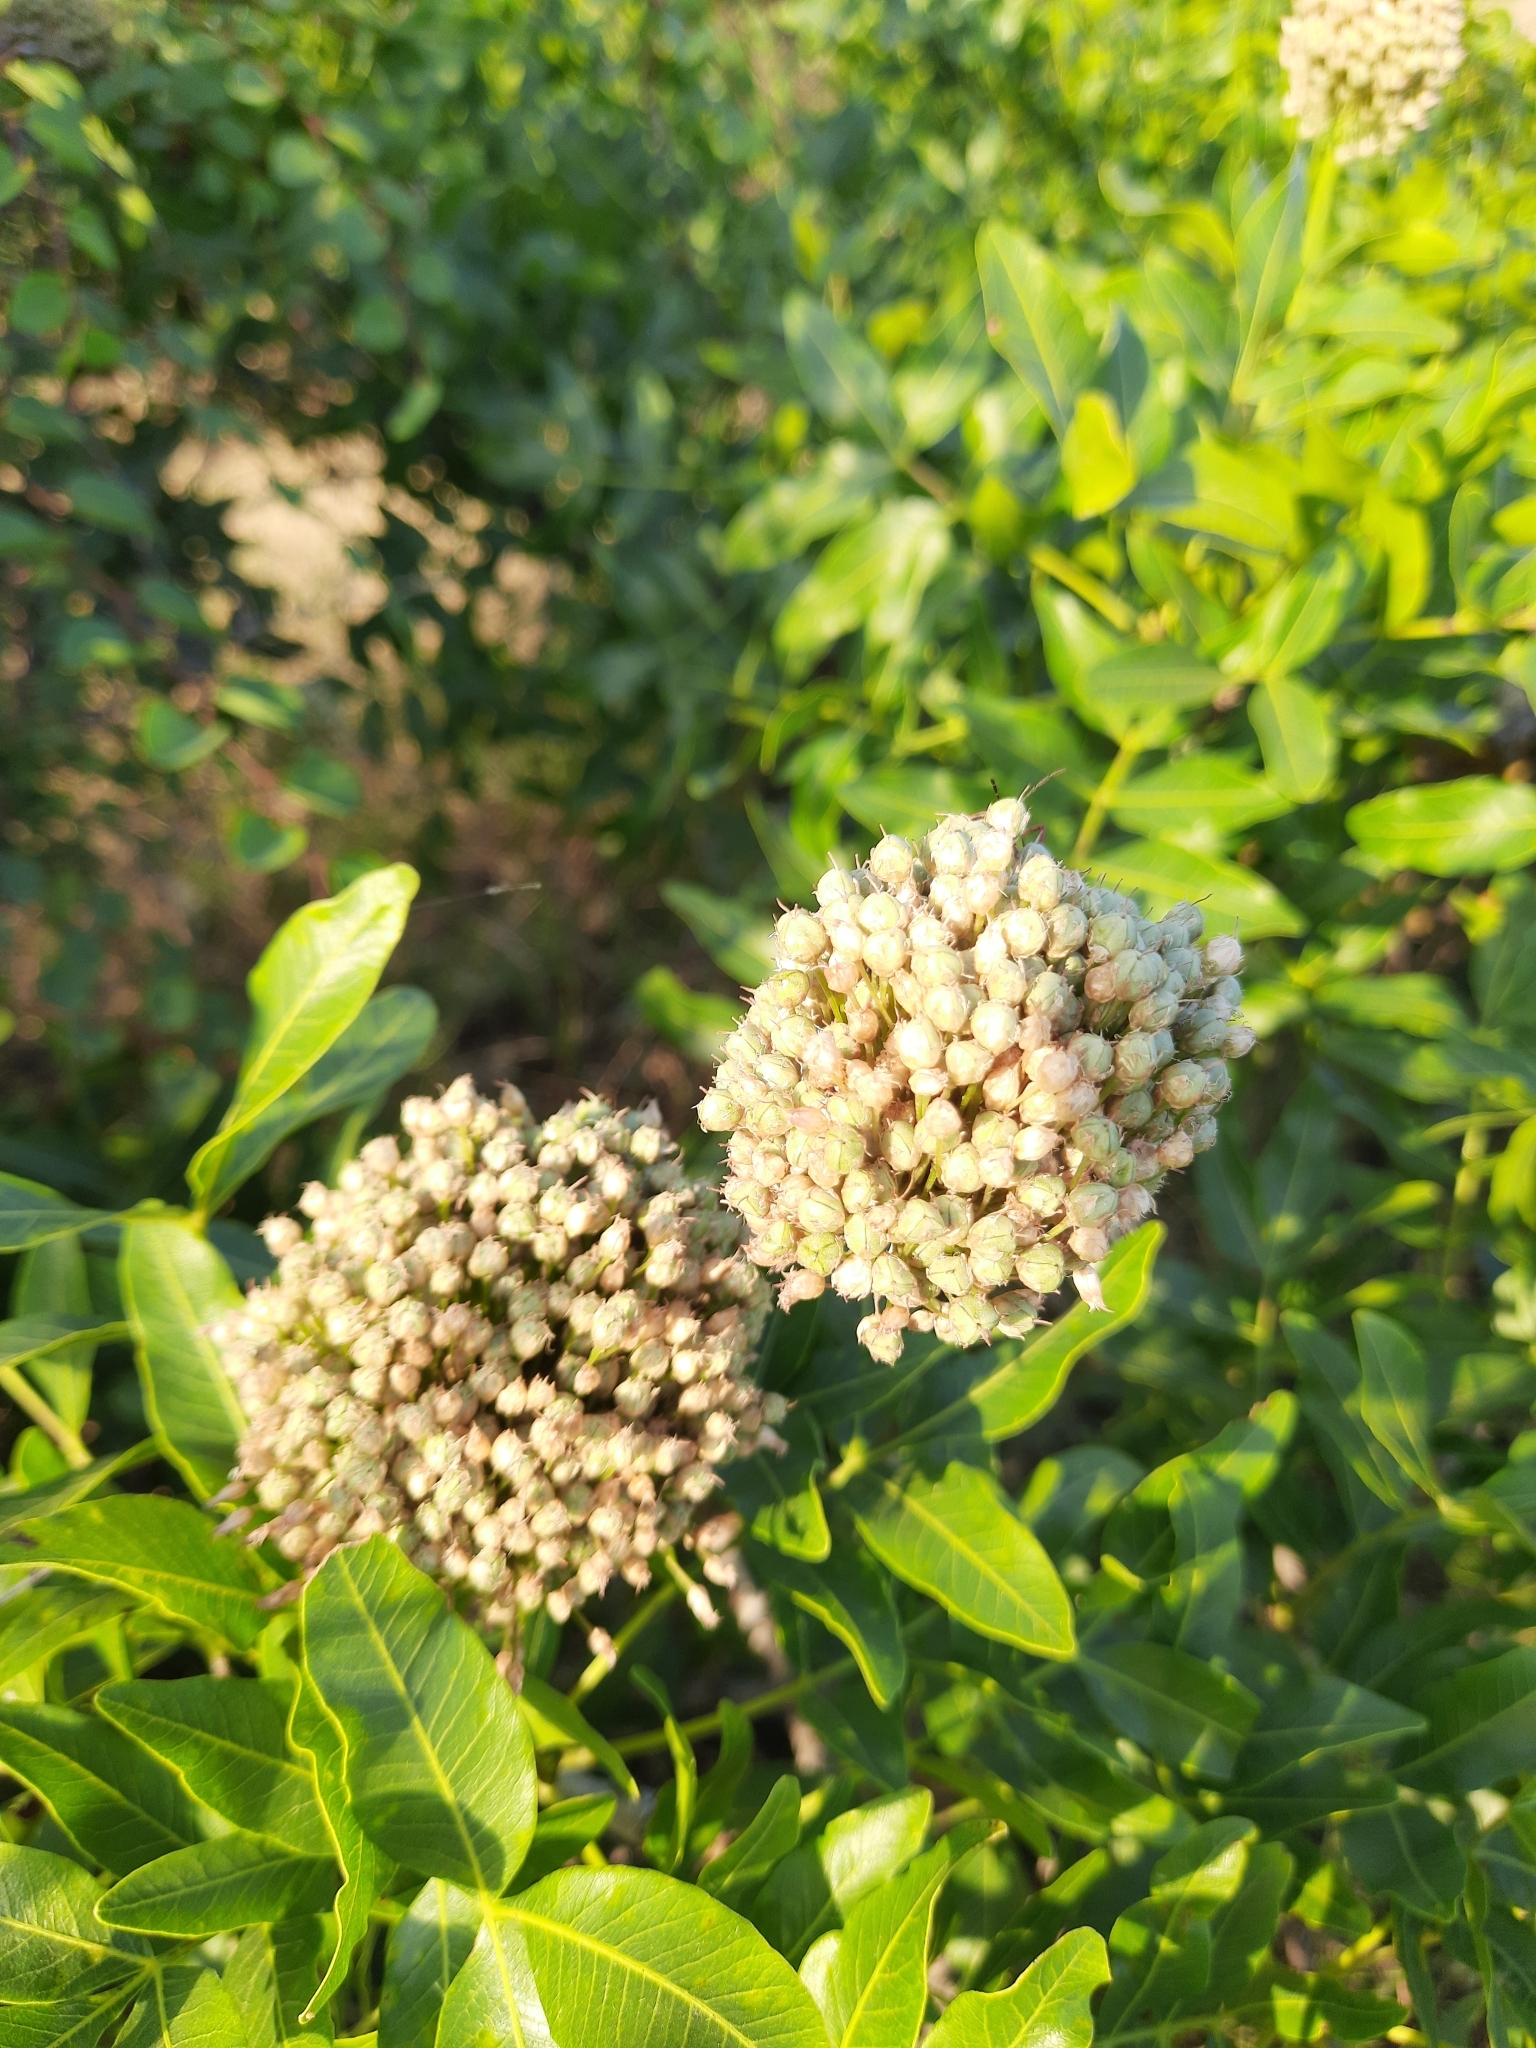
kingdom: Plantae
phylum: Tracheophyta
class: Liliopsida
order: Asparagales
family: Amaryllidaceae
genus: Allium
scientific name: Allium atroviolaceum
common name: Broadleaf wild leek
